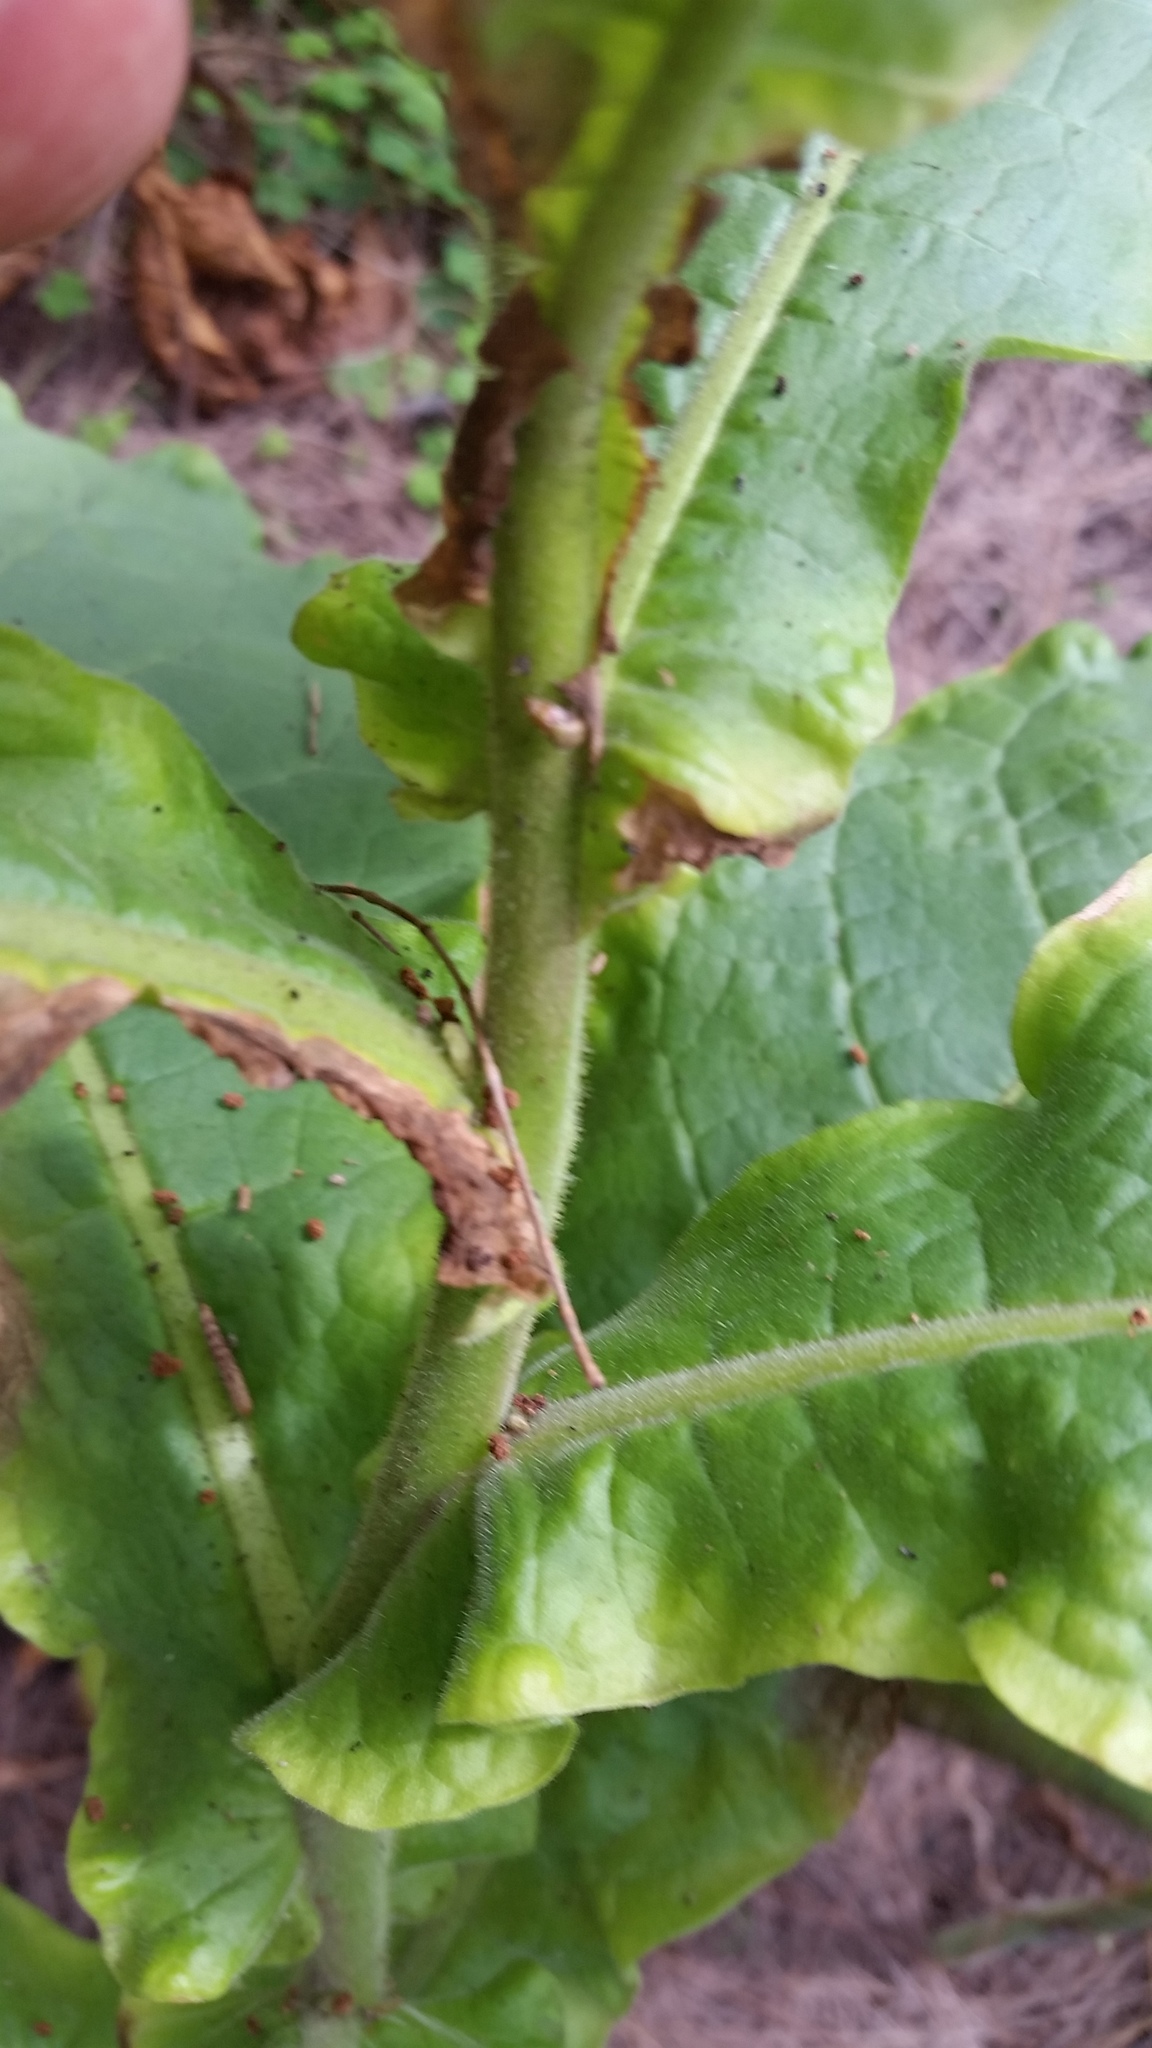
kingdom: Plantae
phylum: Tracheophyta
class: Magnoliopsida
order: Solanales
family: Solanaceae
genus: Nicotiana
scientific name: Nicotiana tabacum
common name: Tobacco
